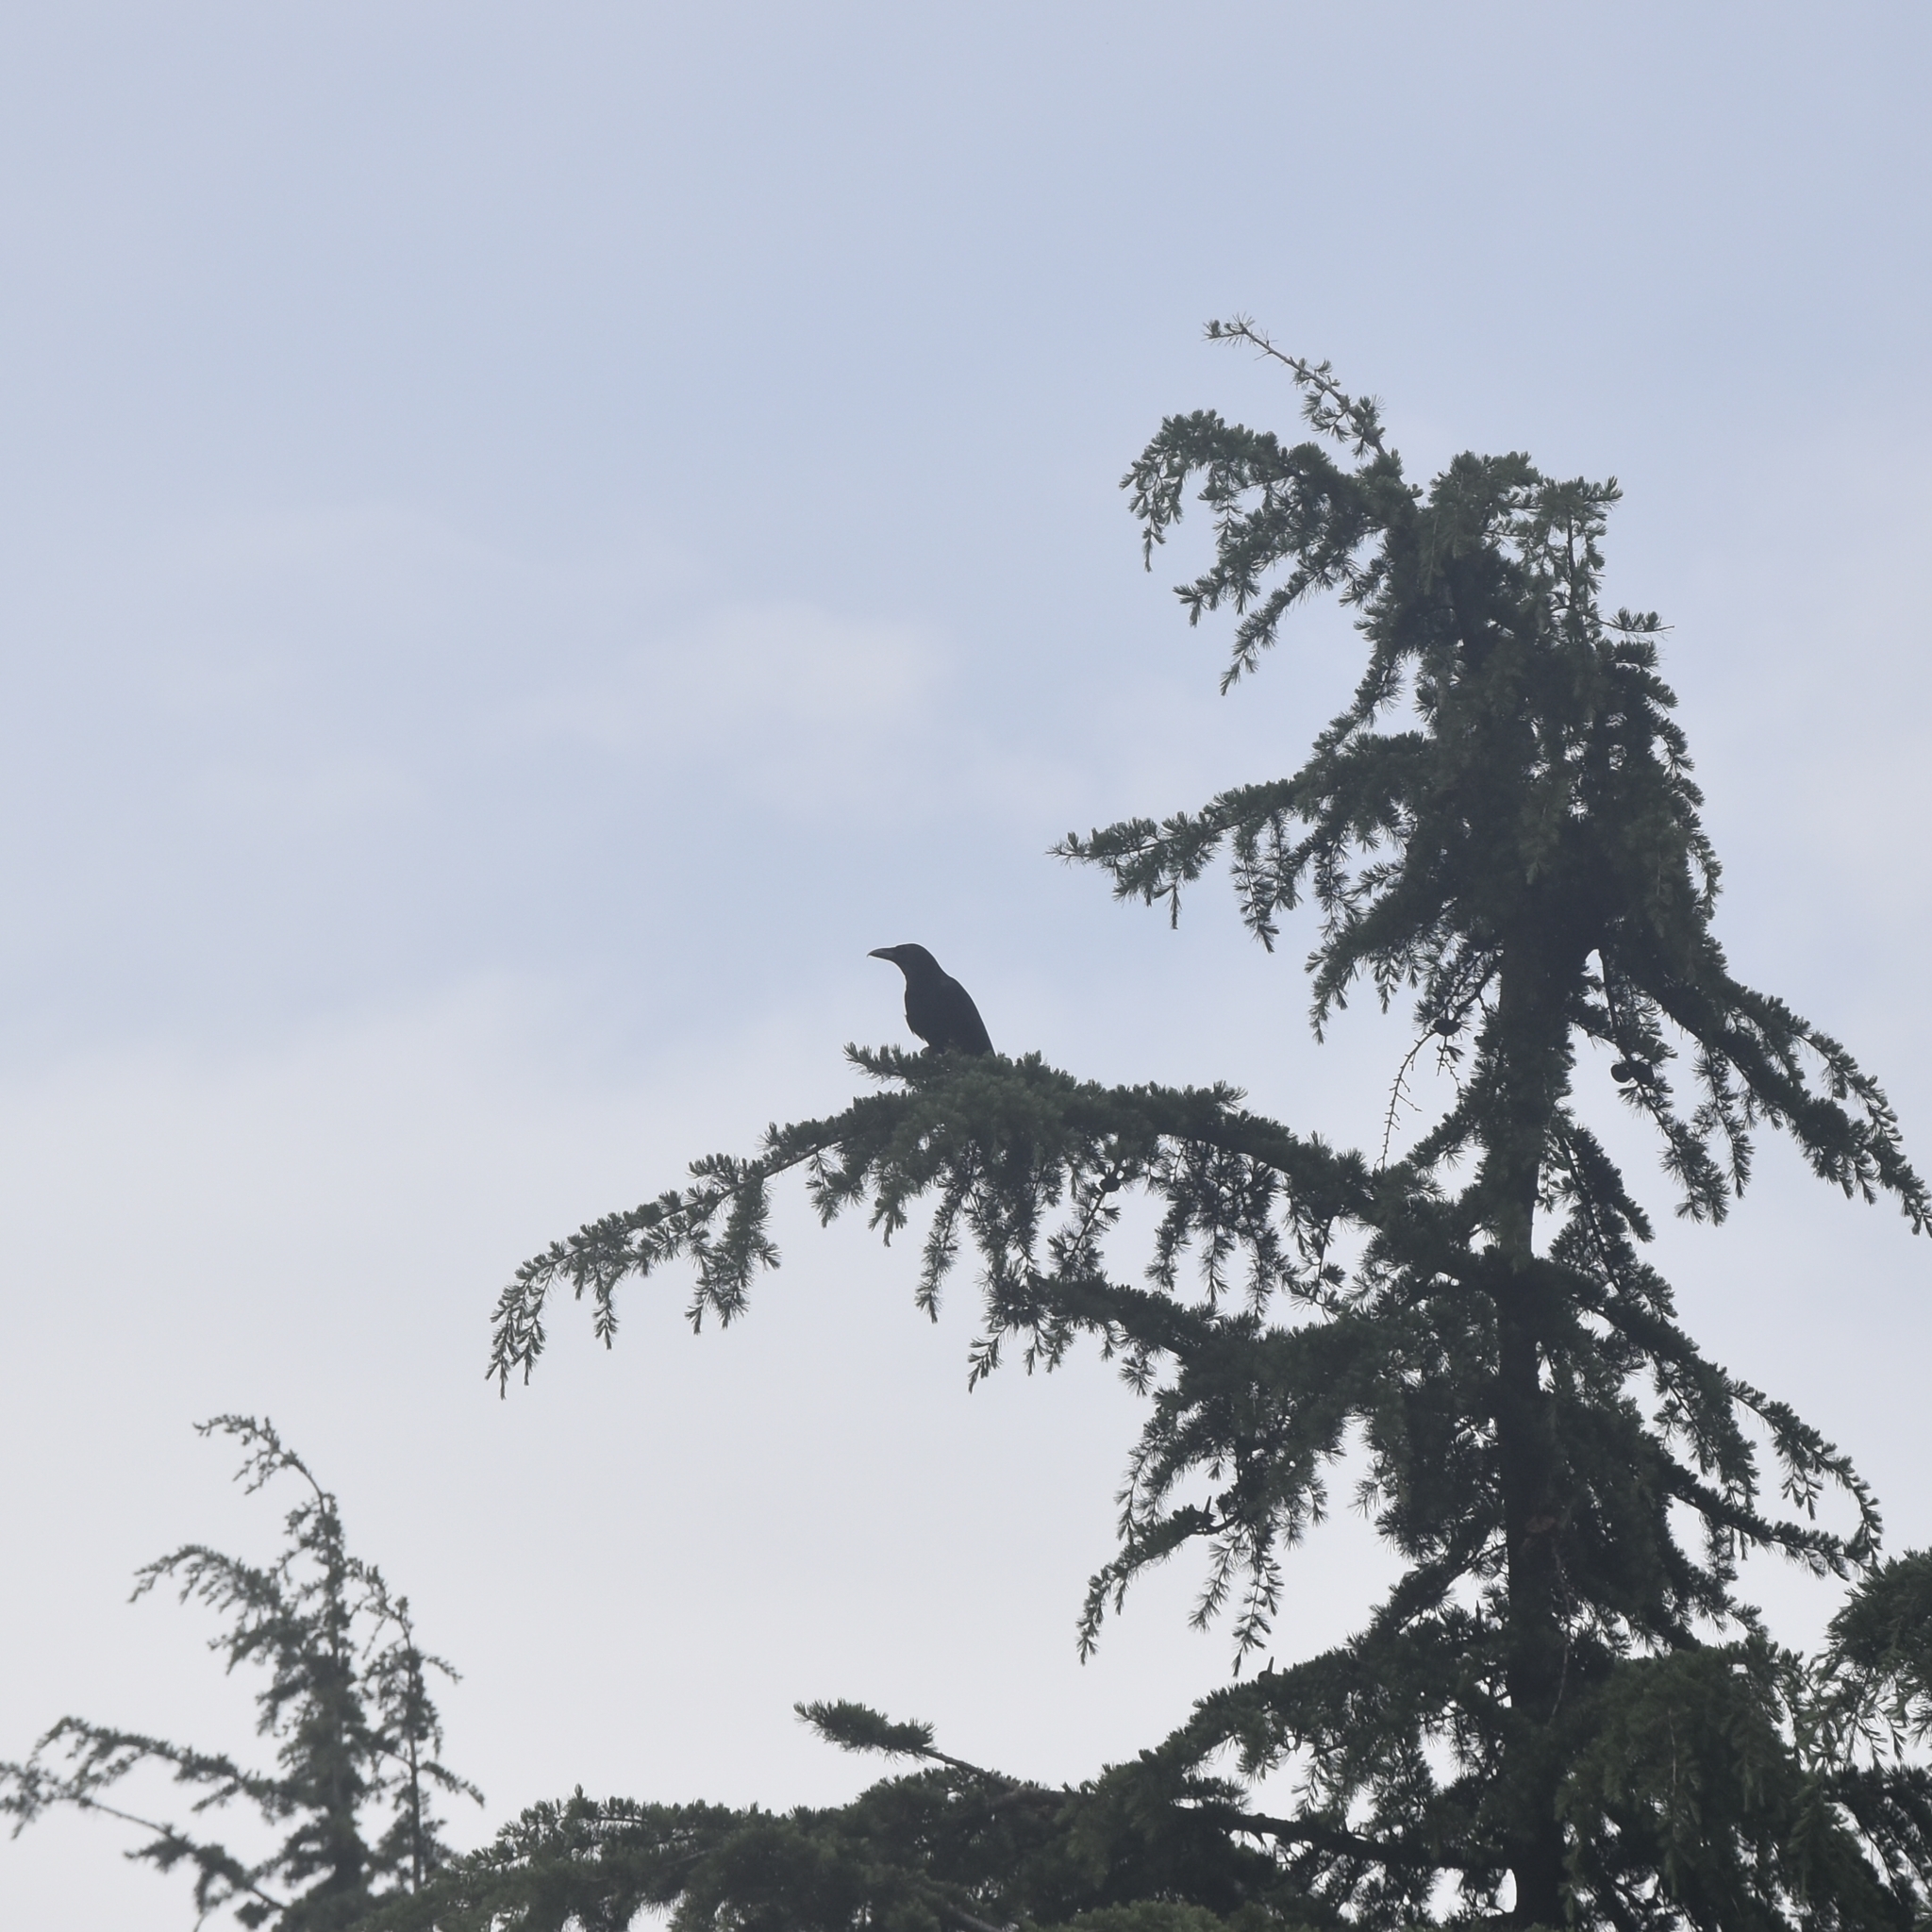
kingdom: Animalia
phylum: Chordata
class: Aves
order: Passeriformes
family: Corvidae
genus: Corvus
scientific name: Corvus macrorhynchos
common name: Large-billed crow
